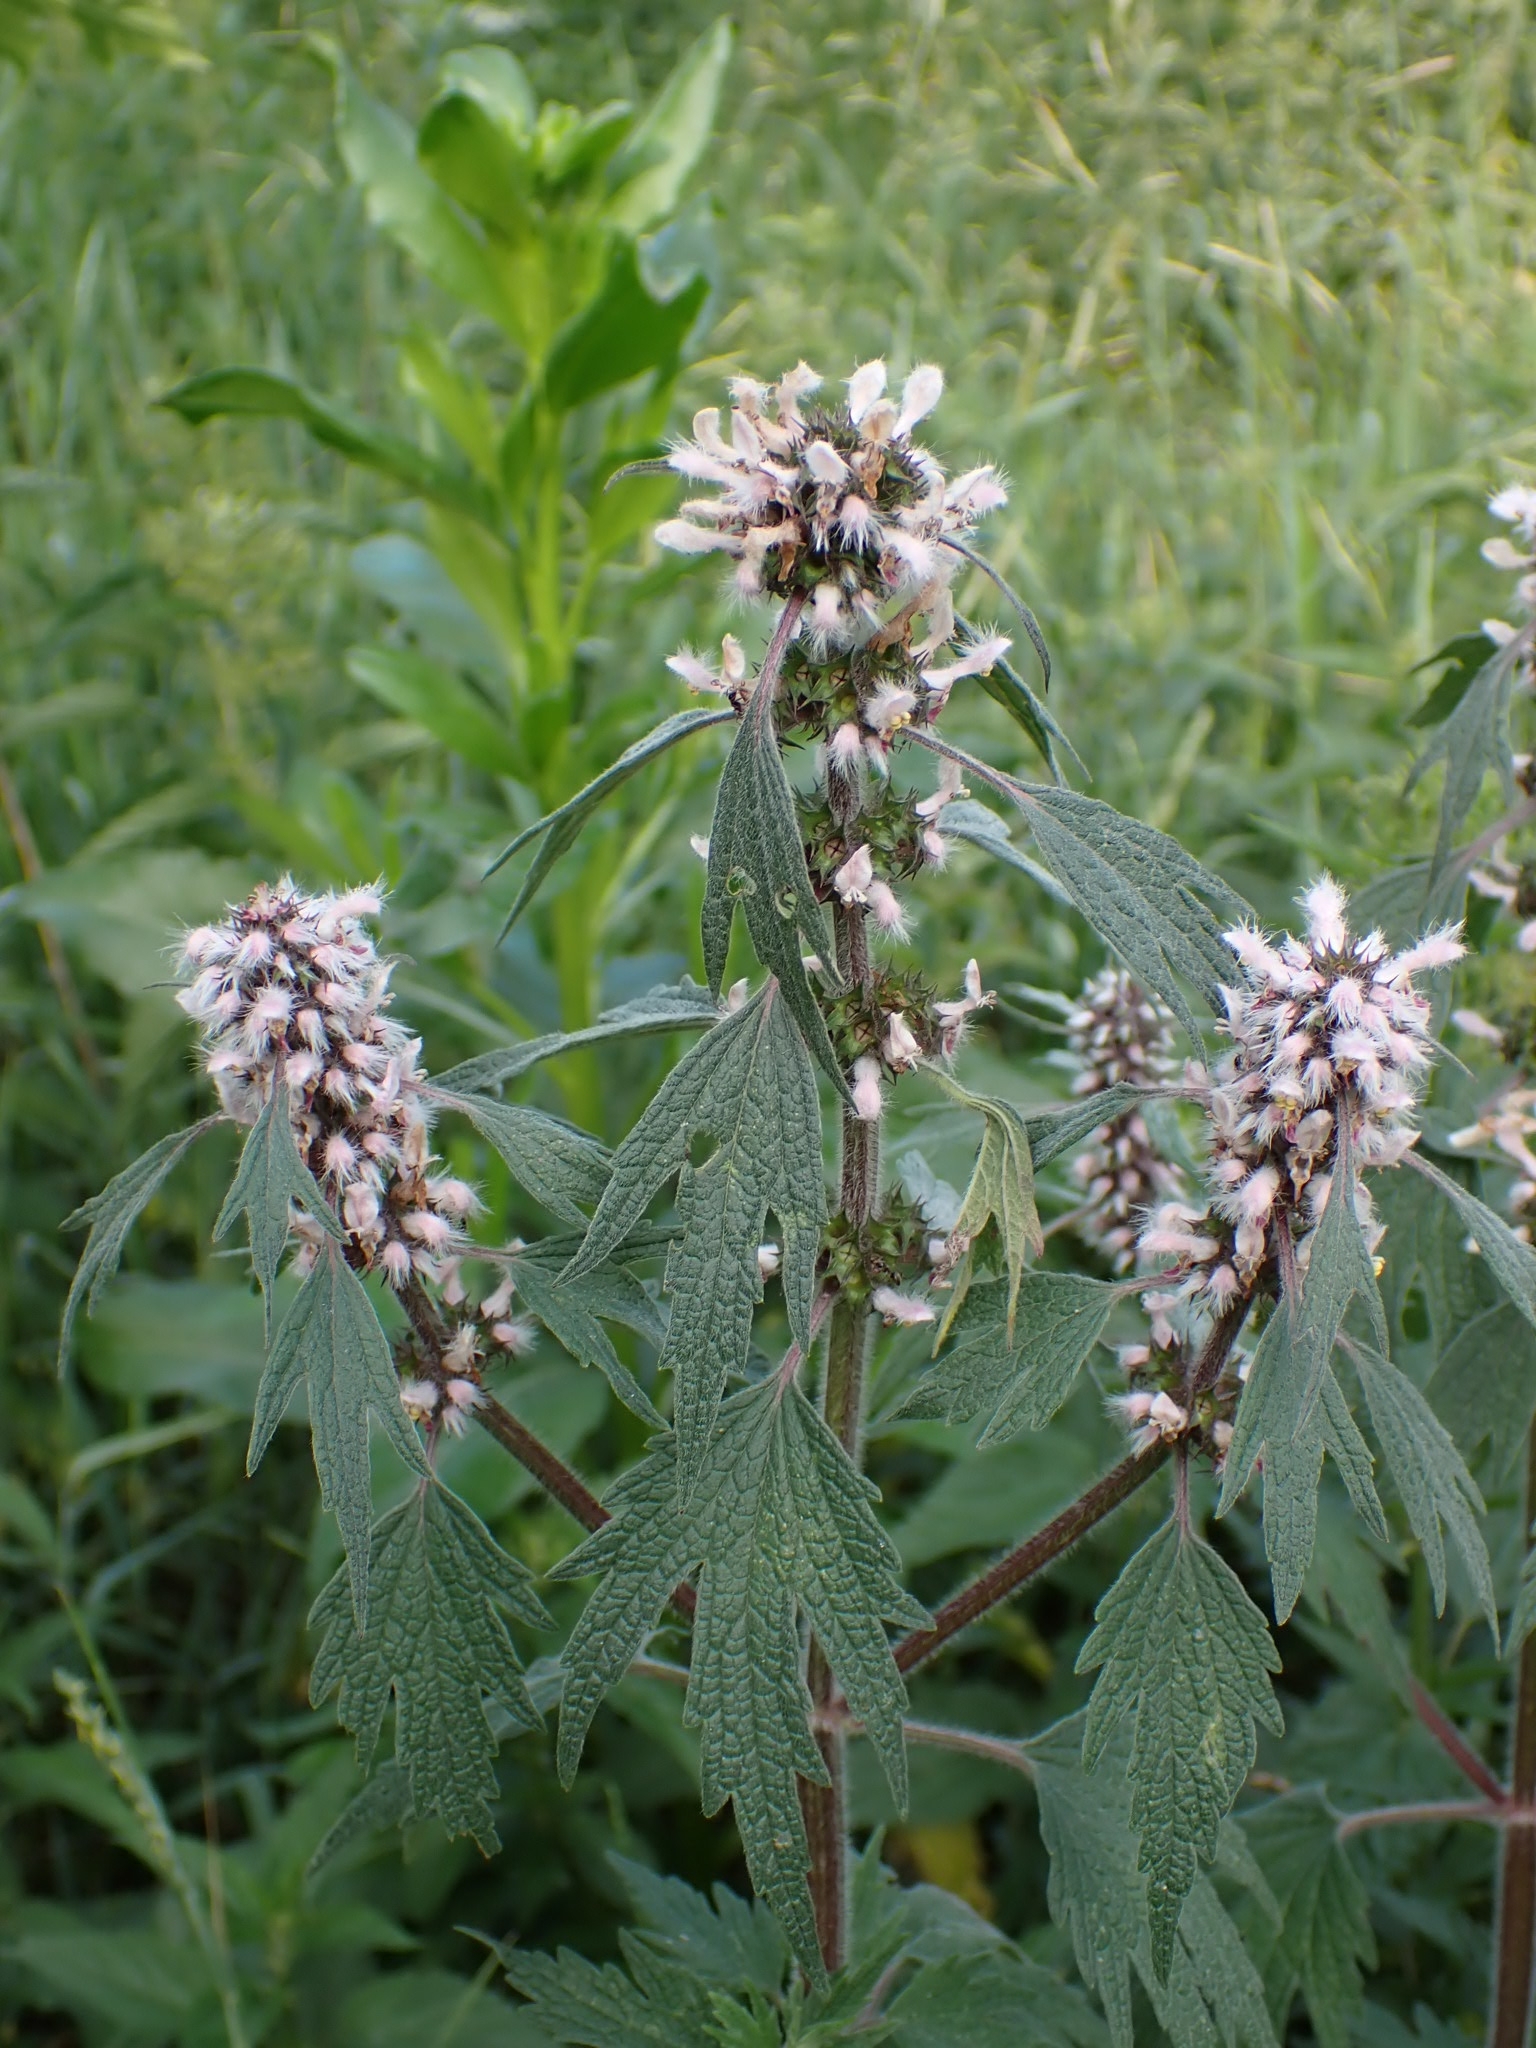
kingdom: Plantae
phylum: Tracheophyta
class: Magnoliopsida
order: Lamiales
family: Lamiaceae
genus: Leonurus
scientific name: Leonurus quinquelobatus
